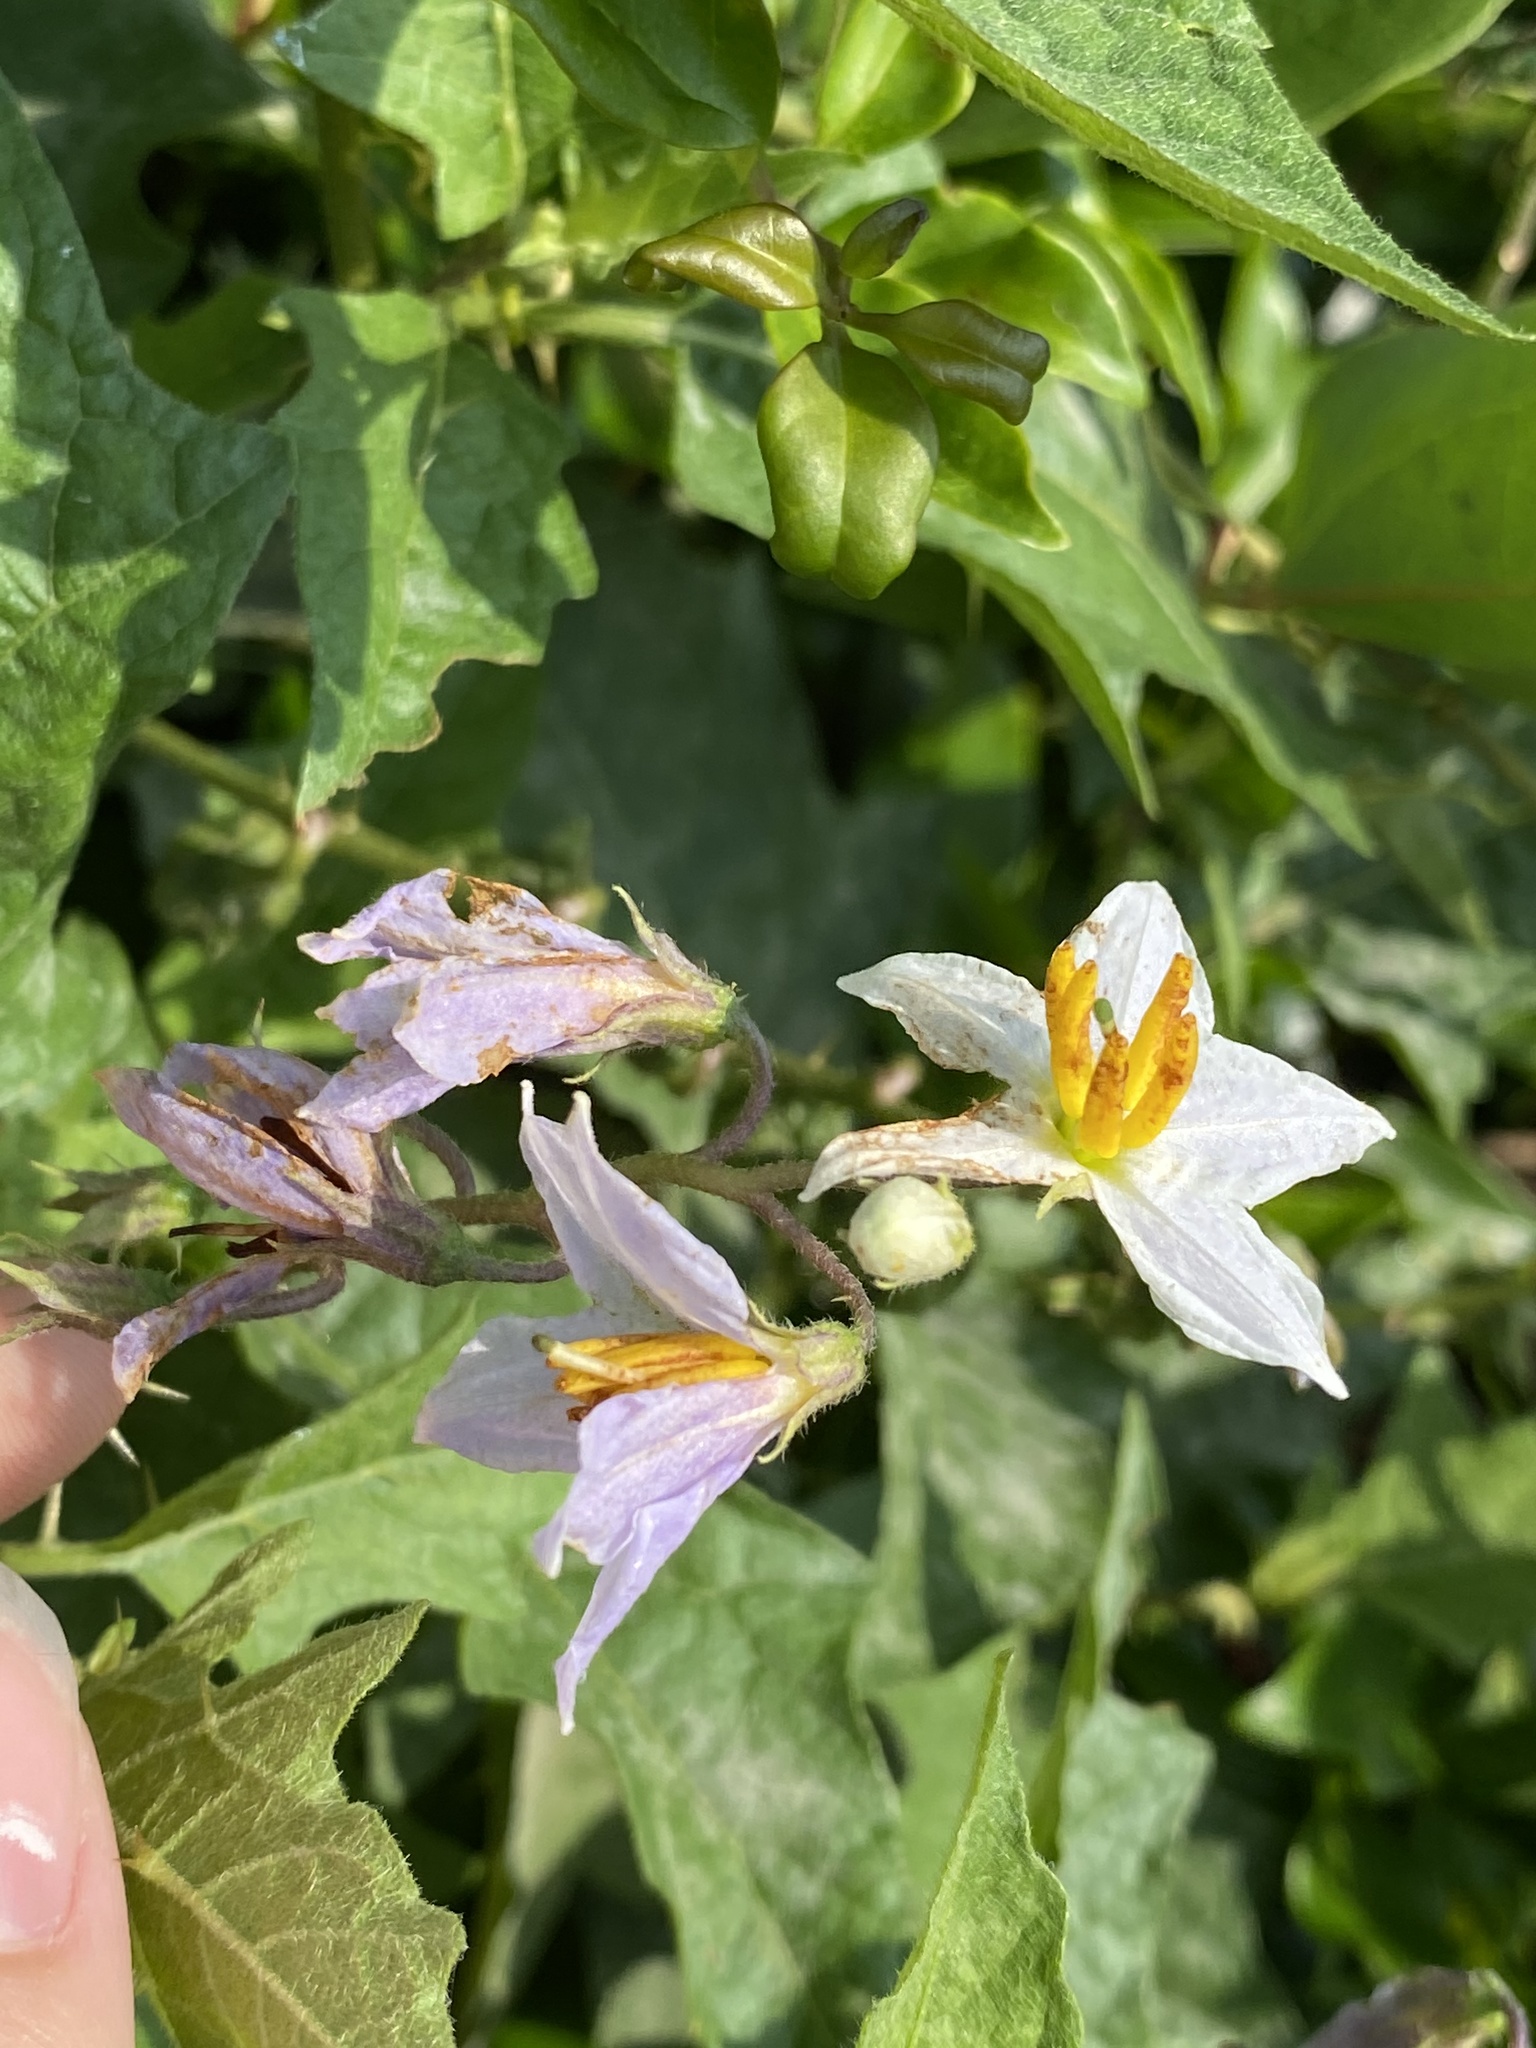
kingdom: Plantae
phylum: Tracheophyta
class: Magnoliopsida
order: Solanales
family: Solanaceae
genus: Solanum
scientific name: Solanum carolinense
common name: Horse-nettle
